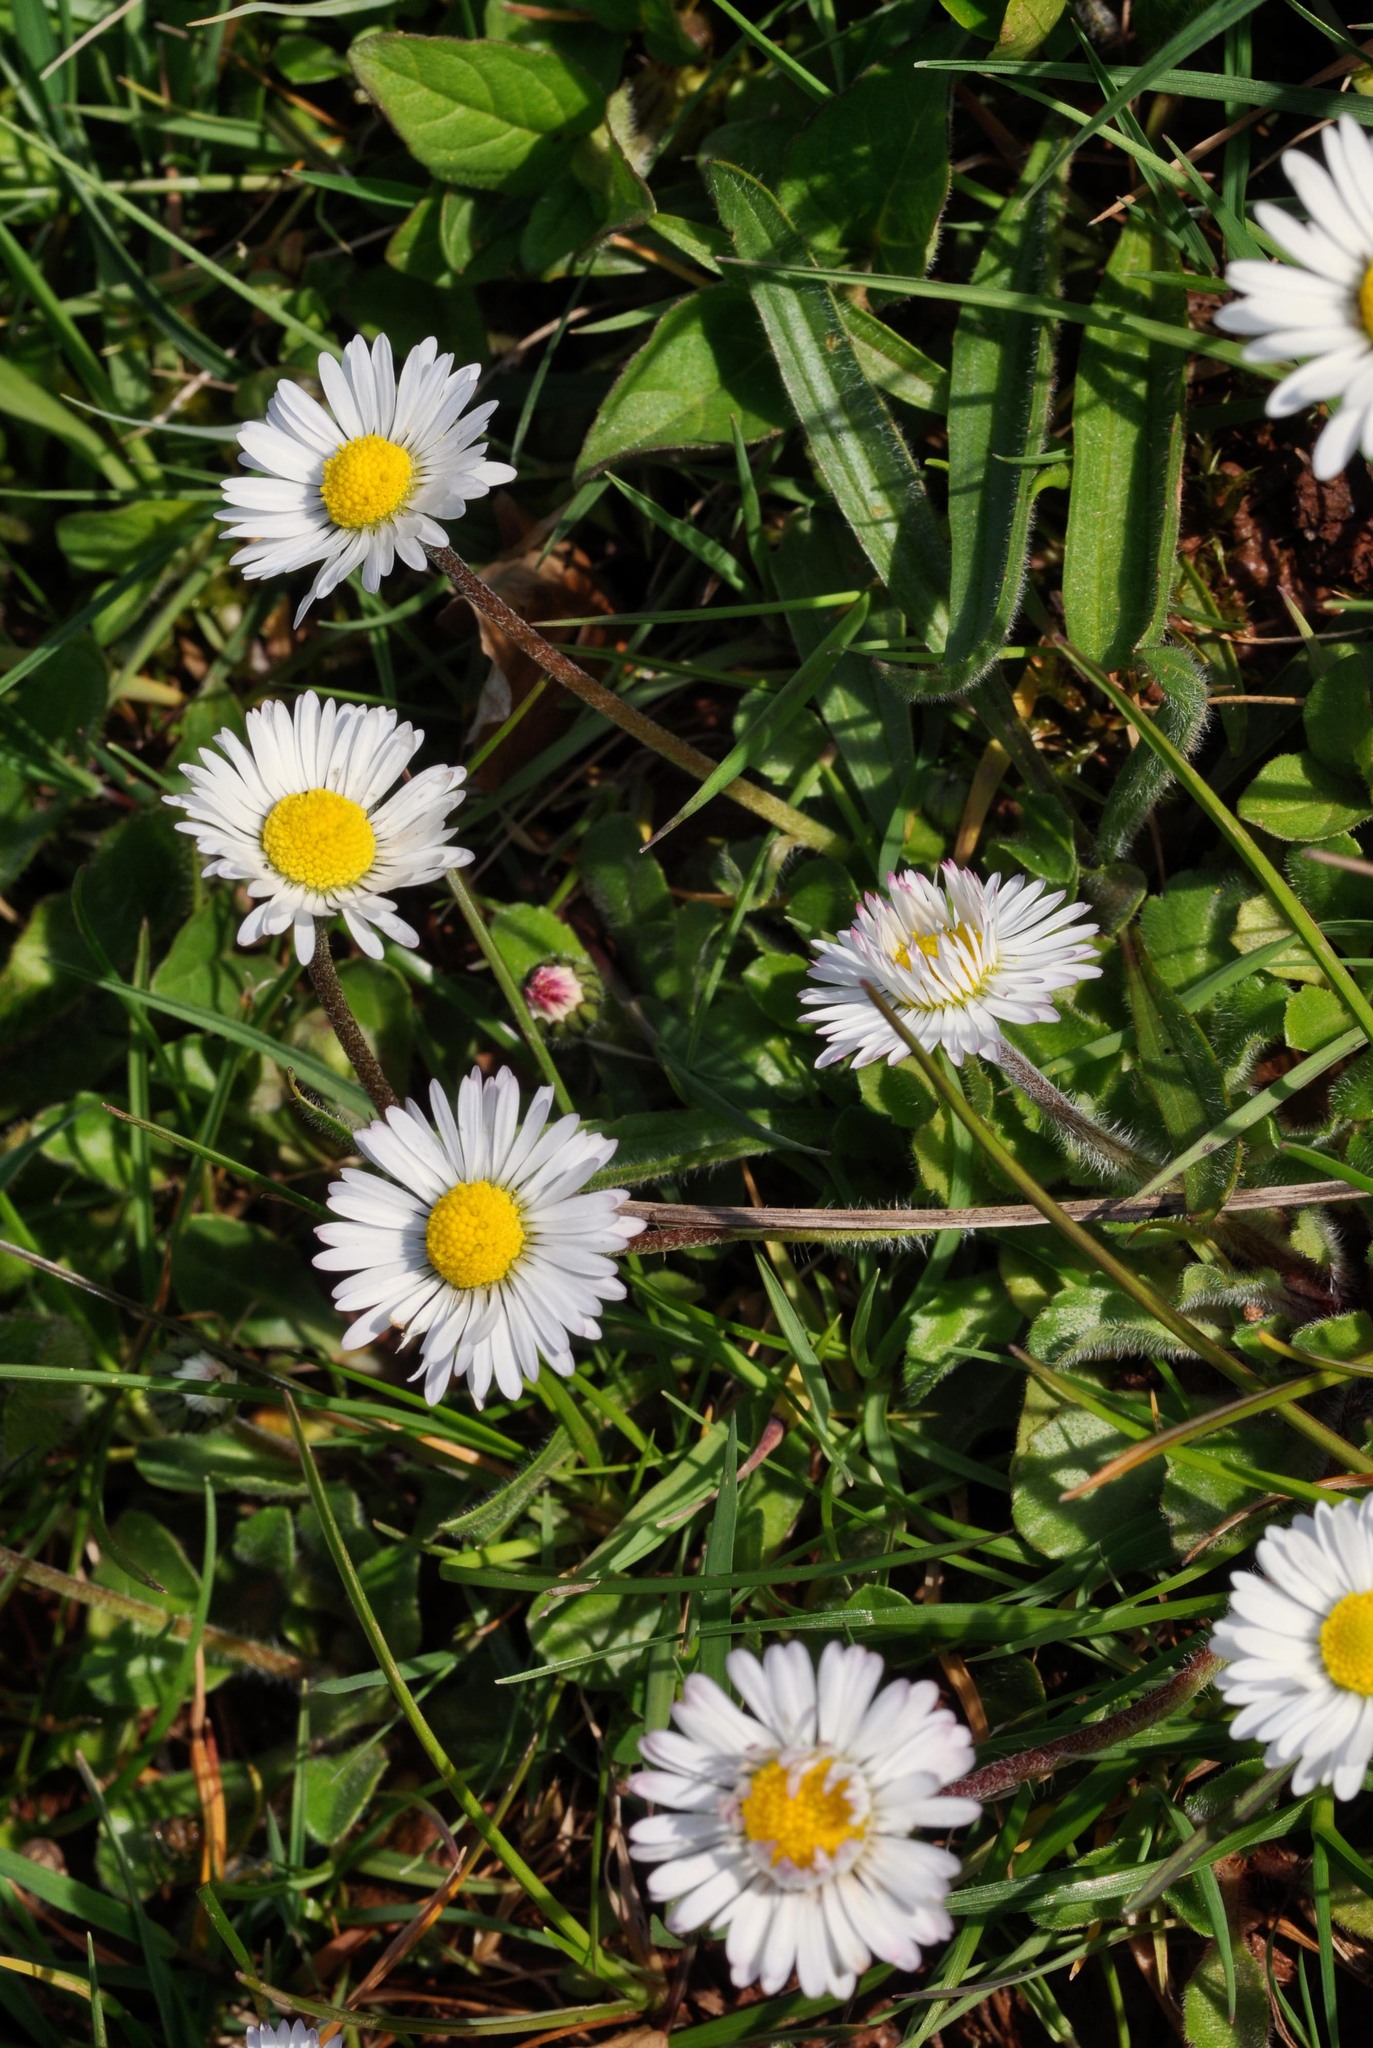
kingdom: Plantae
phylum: Tracheophyta
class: Magnoliopsida
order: Asterales
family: Asteraceae
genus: Bellis
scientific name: Bellis perennis
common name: Lawndaisy
